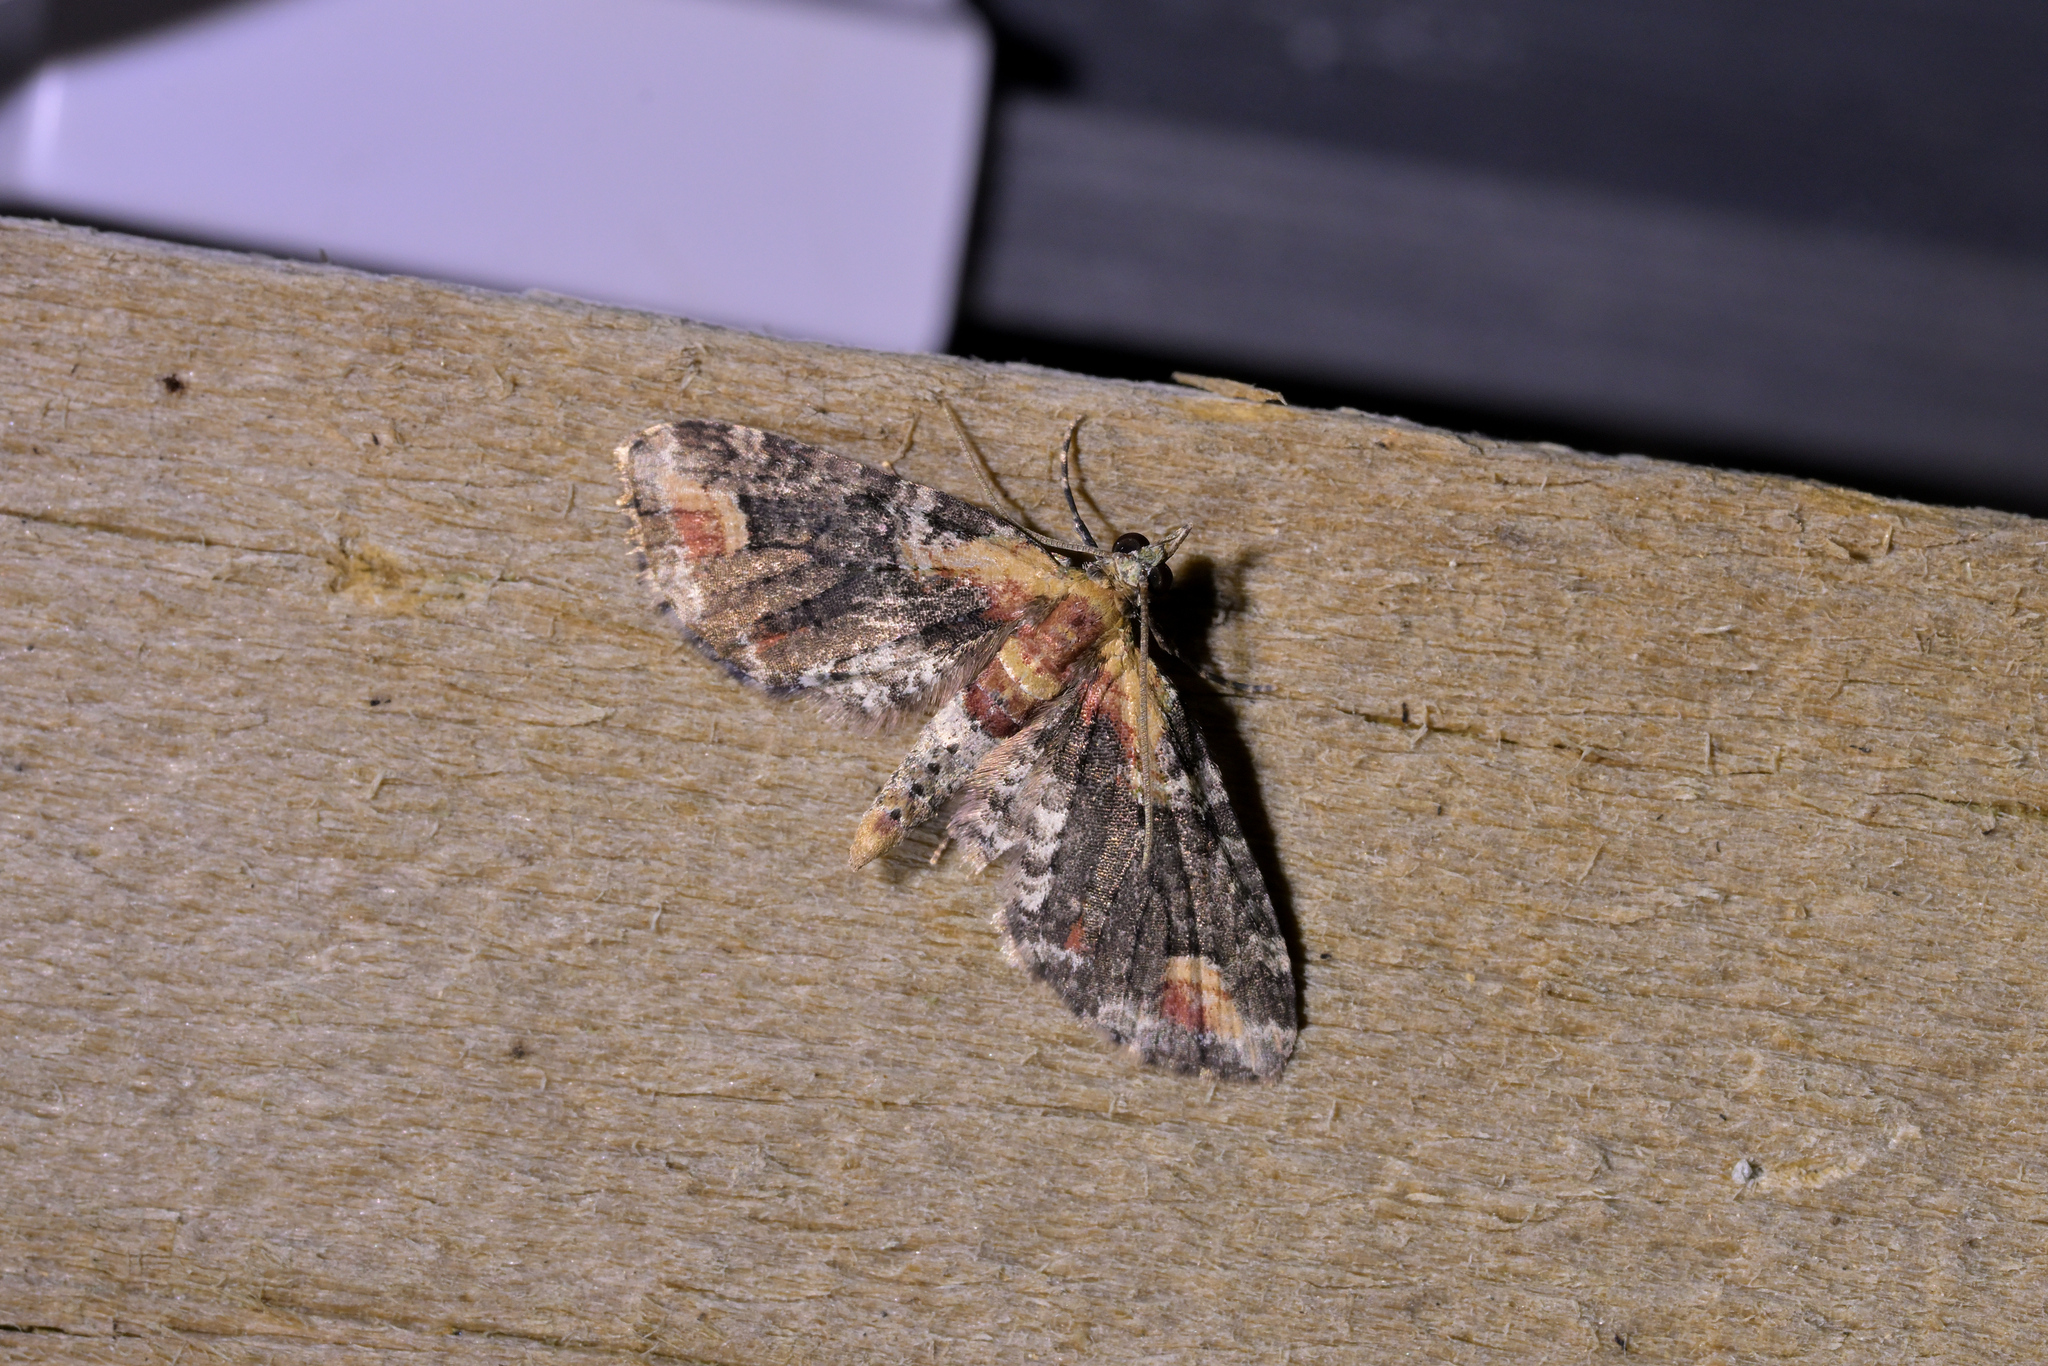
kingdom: Animalia
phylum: Arthropoda
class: Insecta
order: Lepidoptera
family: Geometridae
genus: Idaea
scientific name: Idaea mutanda
